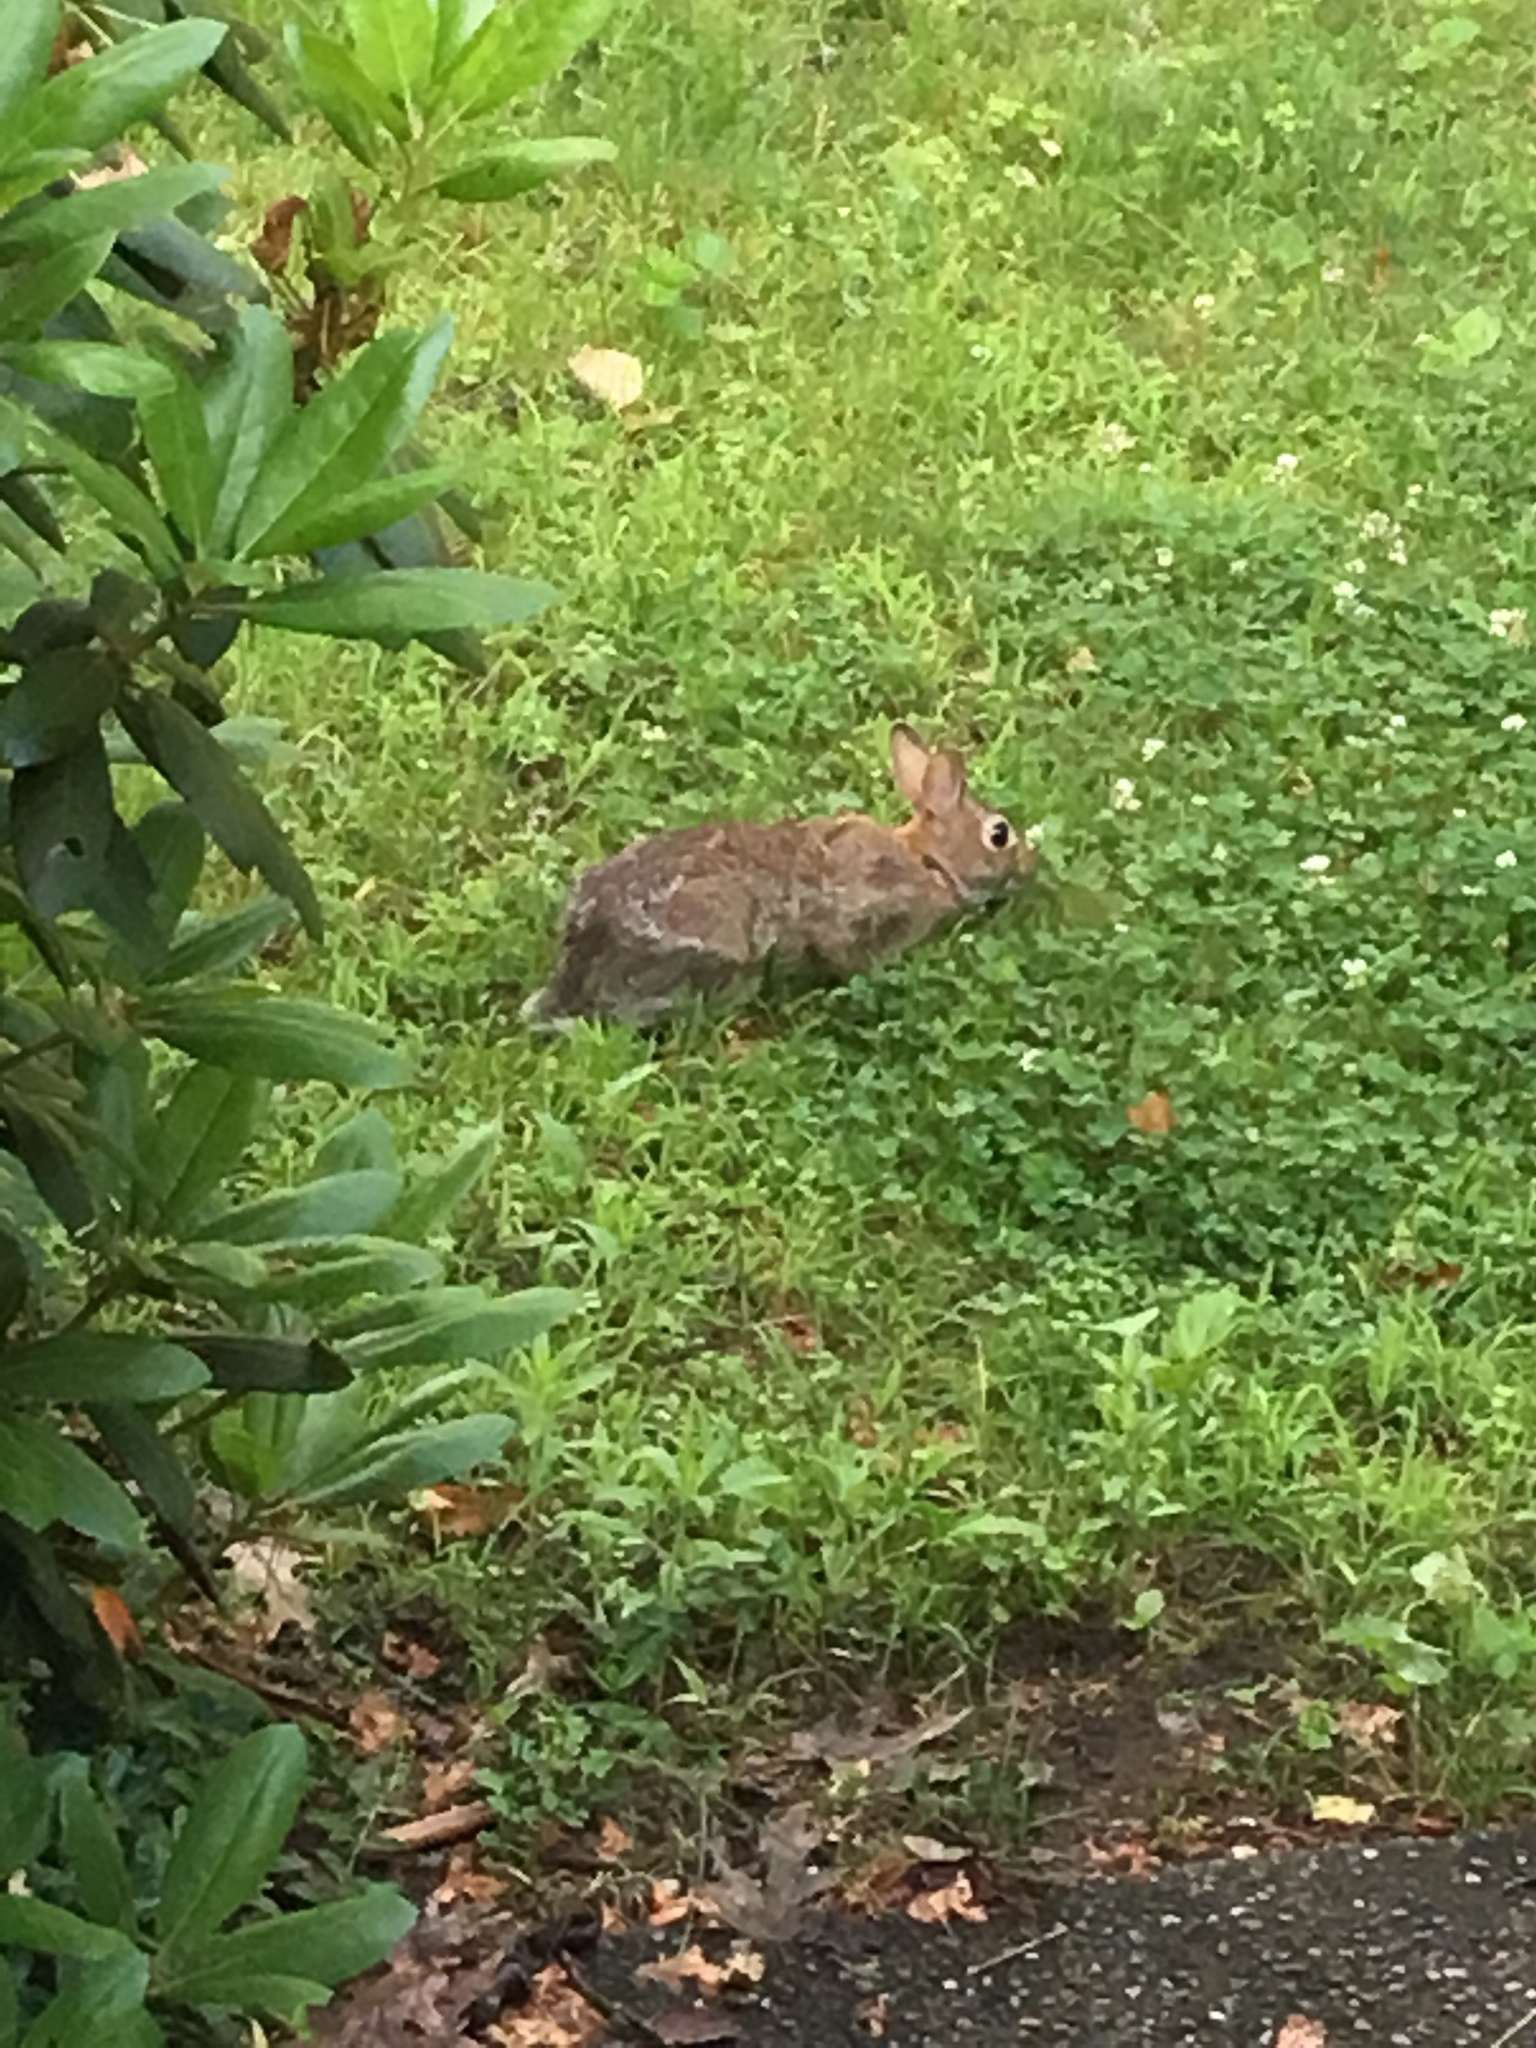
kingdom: Animalia
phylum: Chordata
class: Mammalia
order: Lagomorpha
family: Leporidae
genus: Sylvilagus
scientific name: Sylvilagus floridanus
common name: Eastern cottontail
